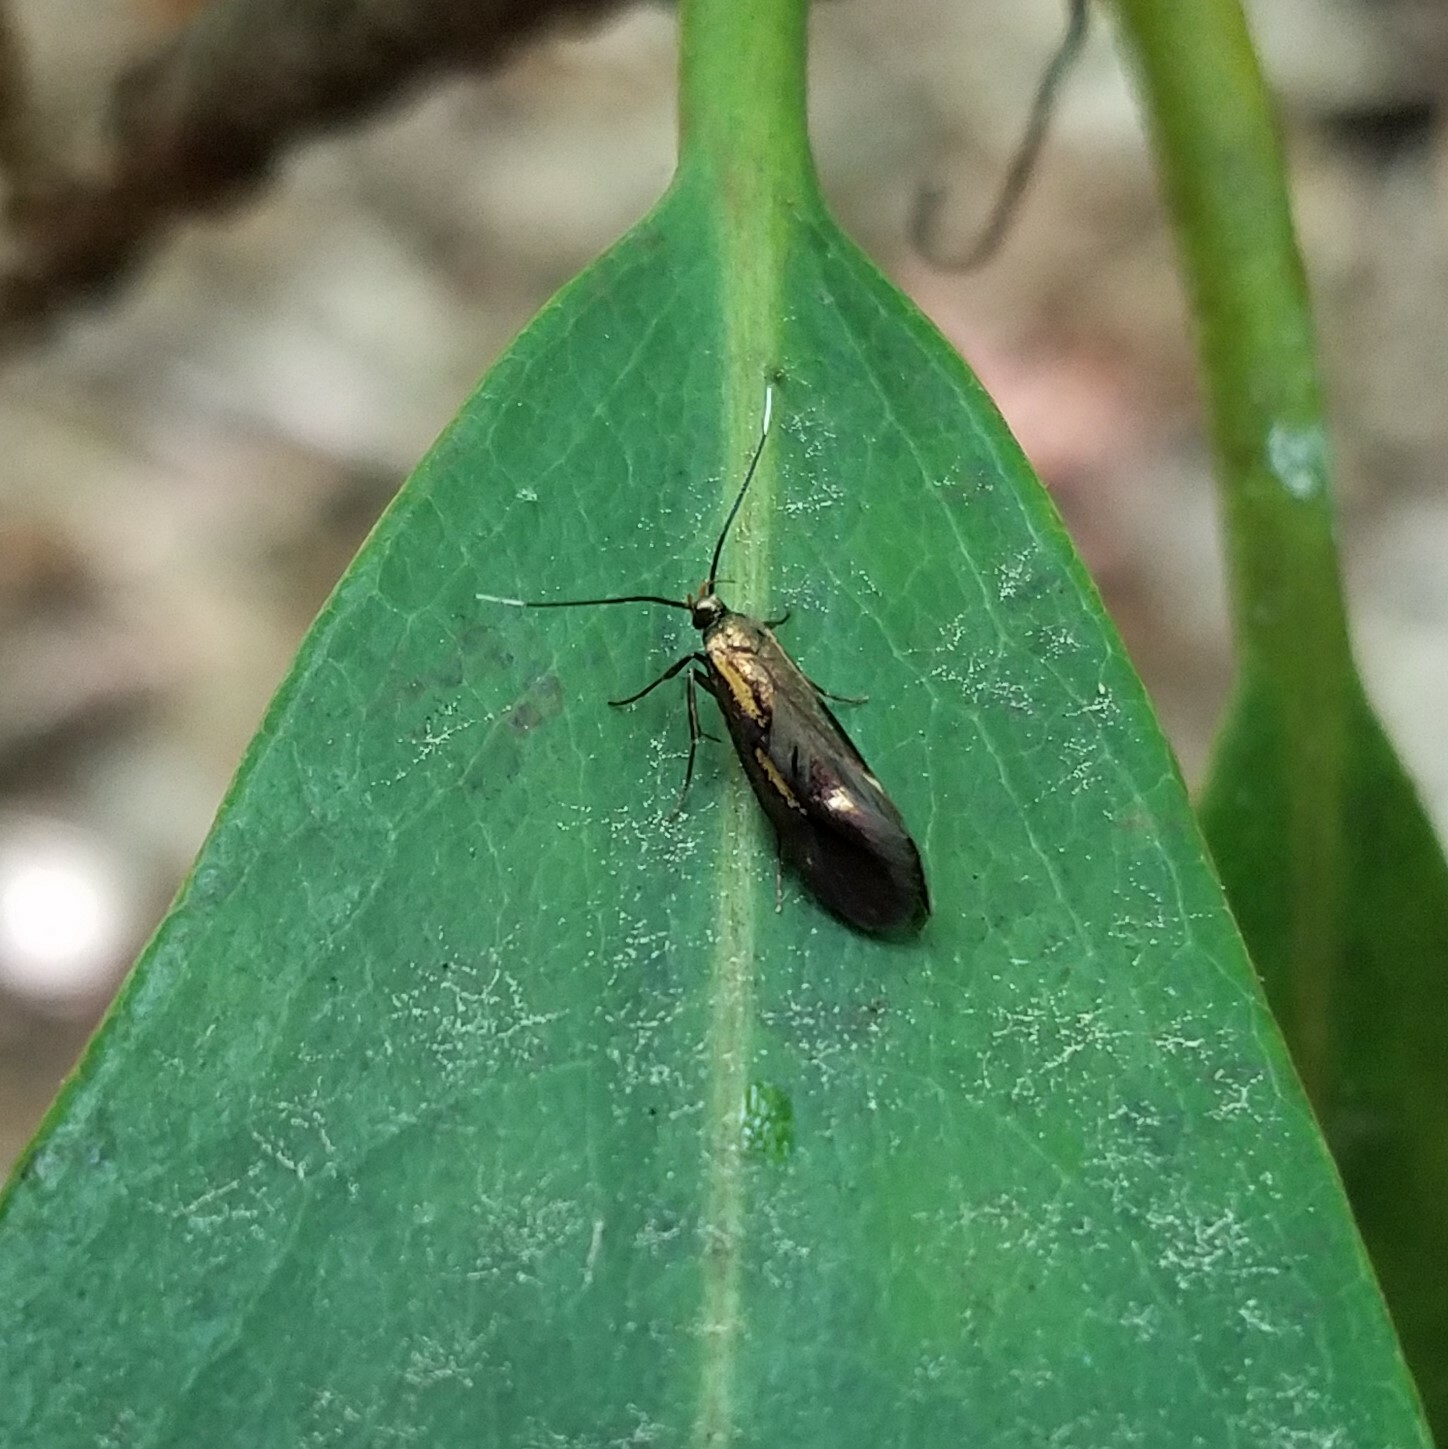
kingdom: Animalia
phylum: Arthropoda
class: Insecta
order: Lepidoptera
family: Oecophoridae
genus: Mathildana
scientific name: Mathildana newmanella
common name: Newman's mathildana moth
